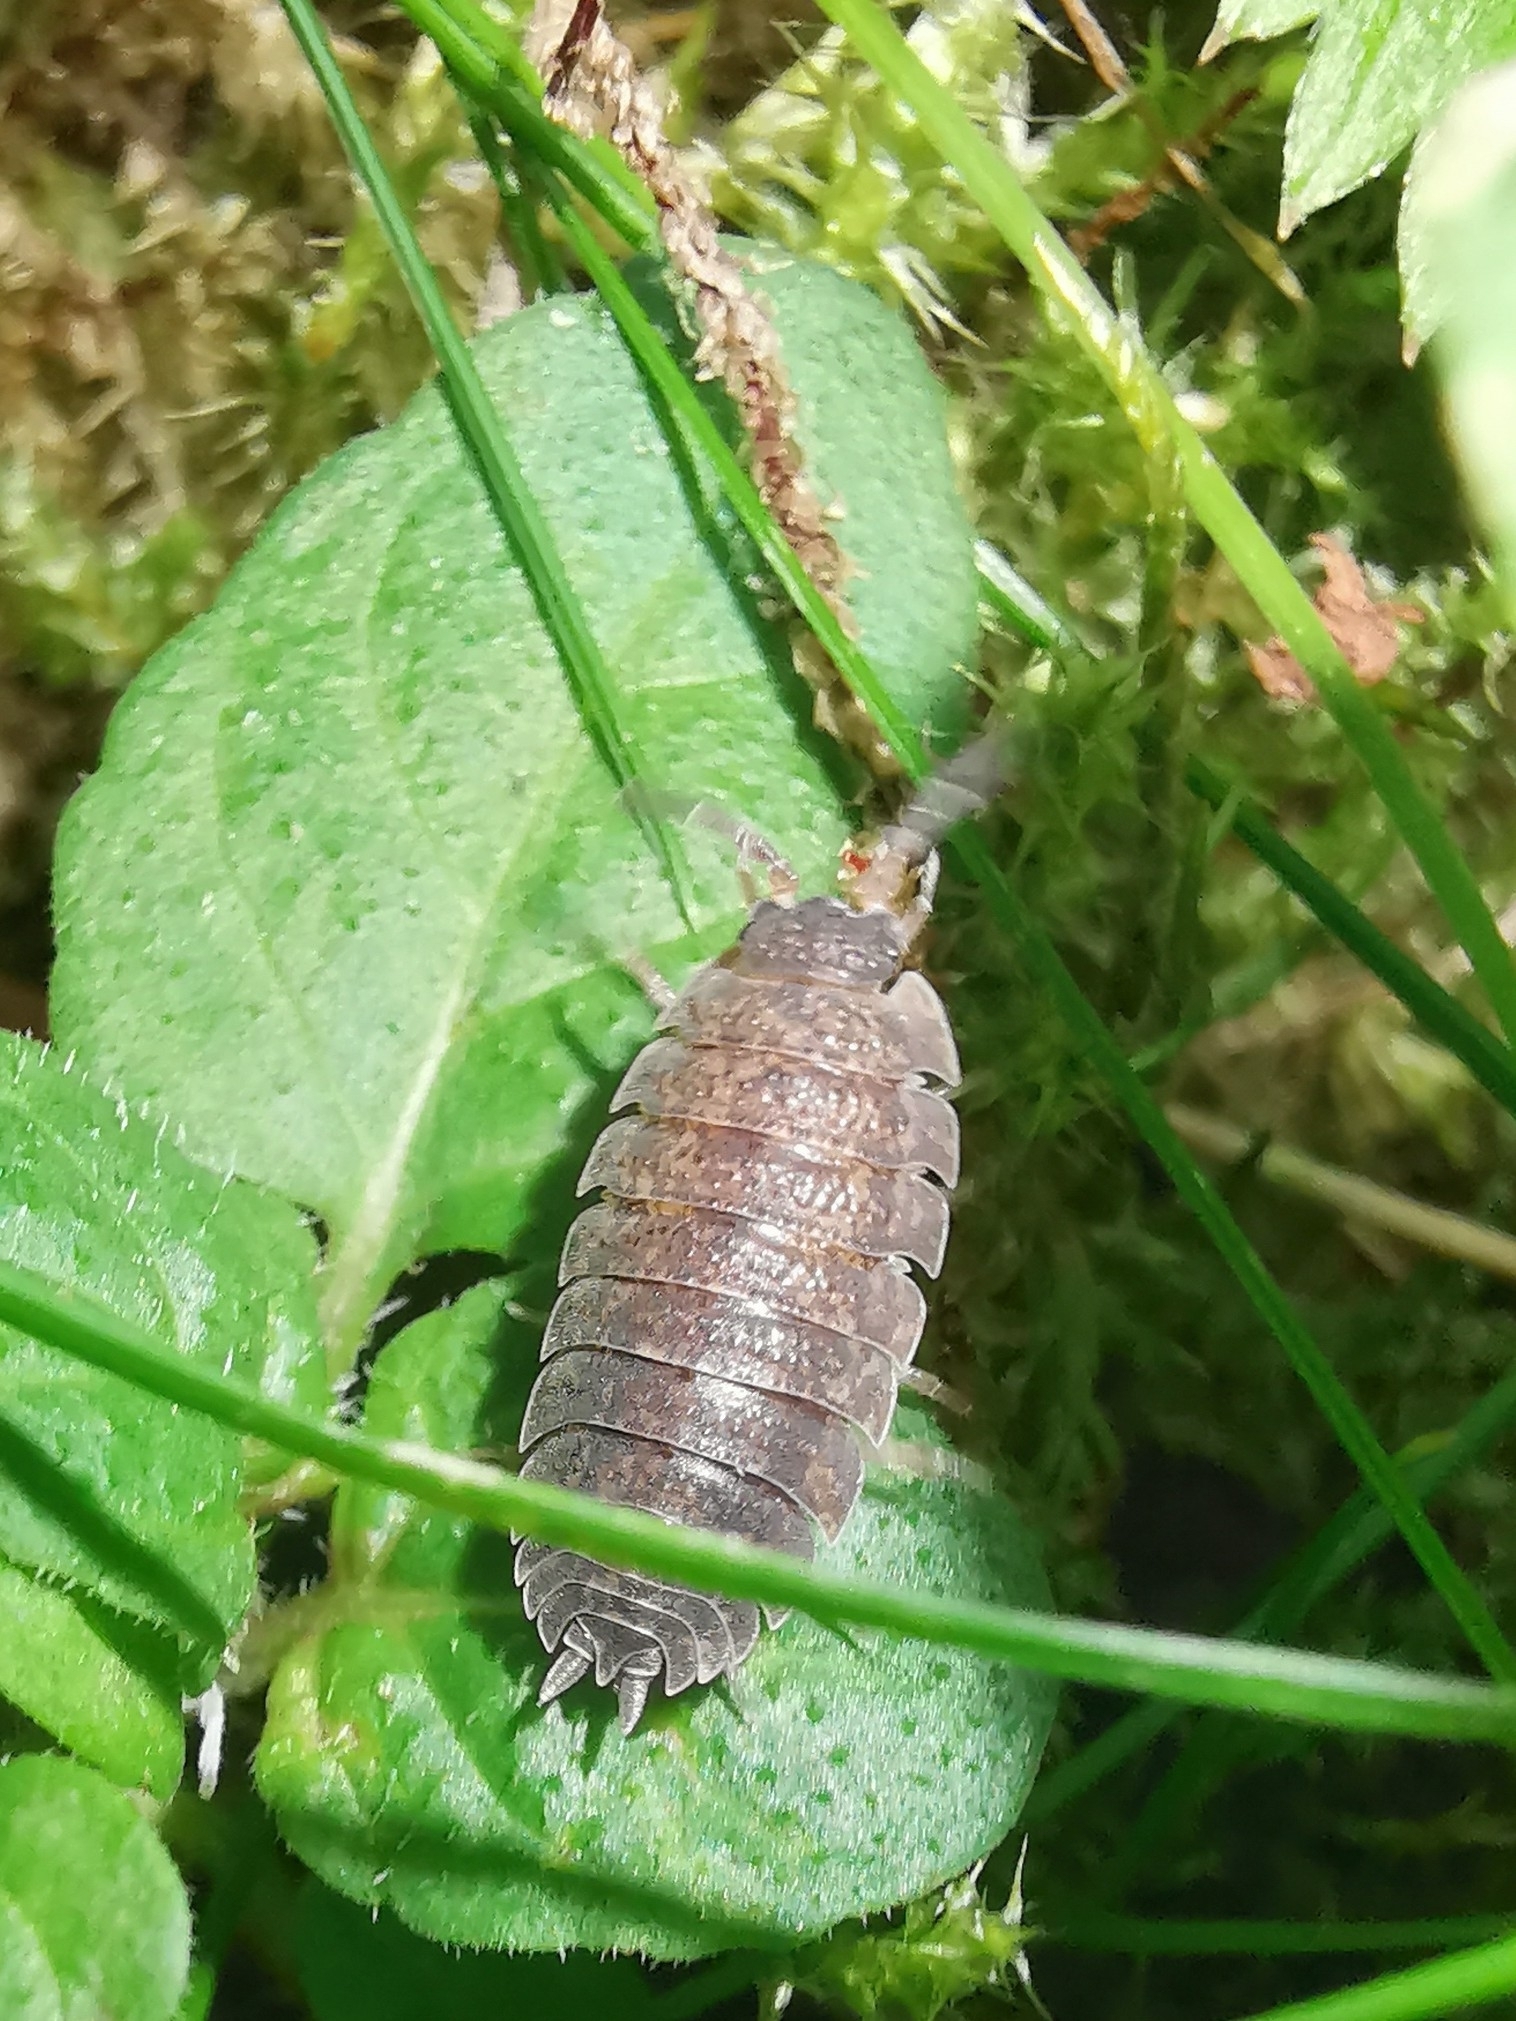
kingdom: Animalia
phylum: Arthropoda
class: Malacostraca
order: Isopoda
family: Porcellionidae
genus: Porcellio
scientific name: Porcellio scaber
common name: Common rough woodlouse
